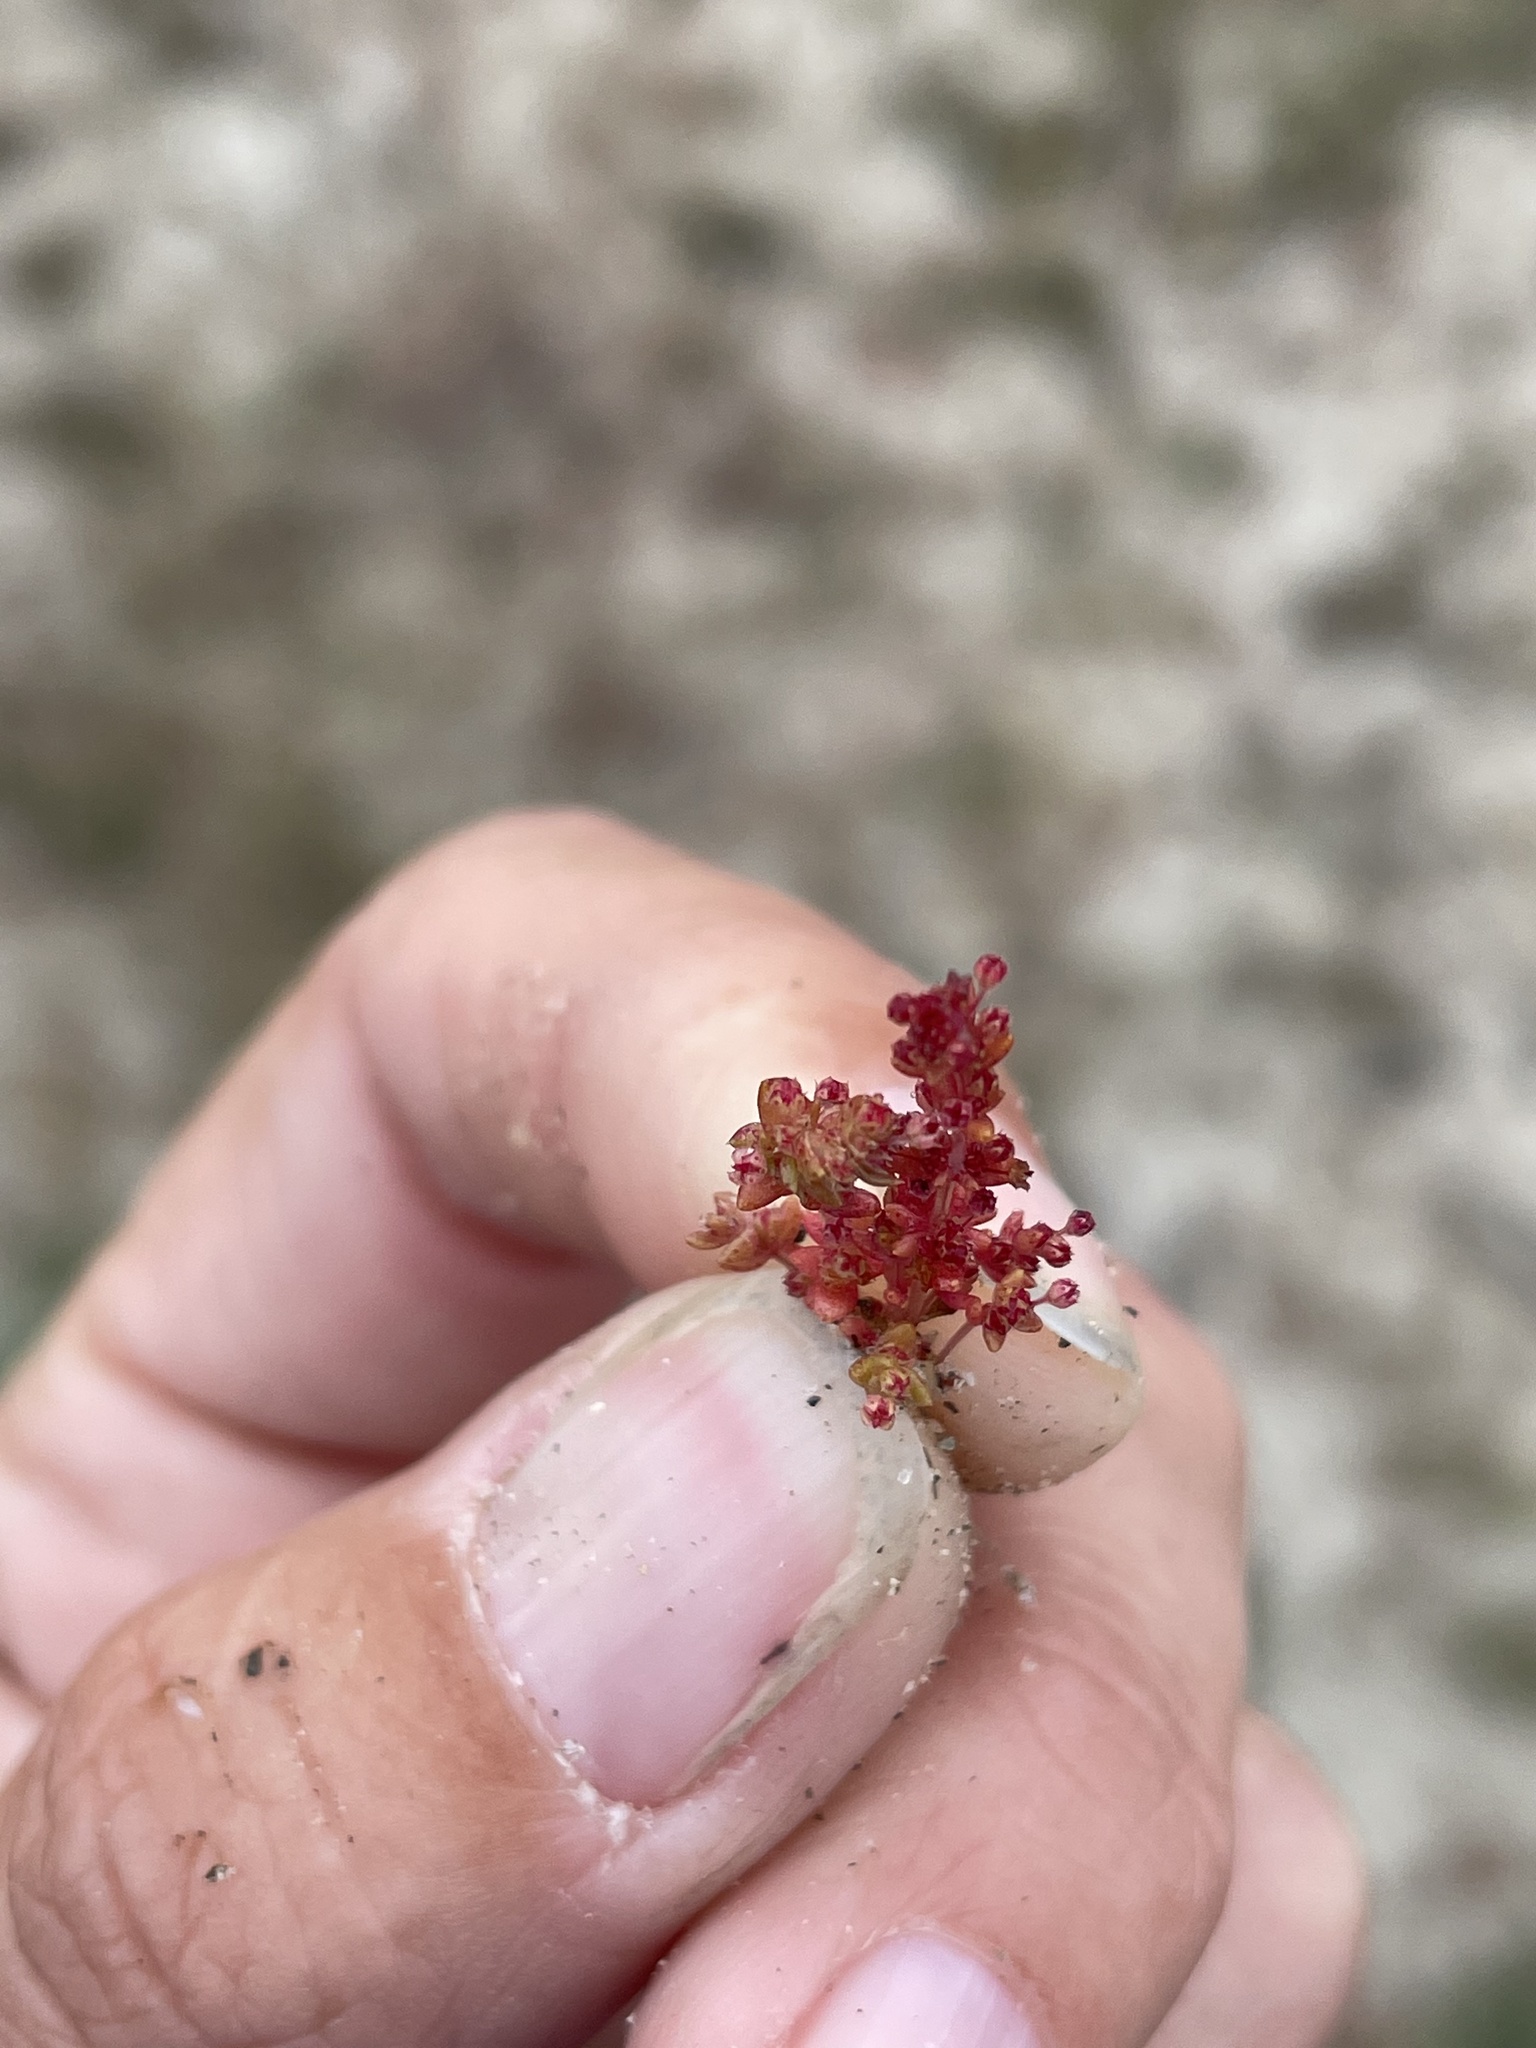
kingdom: Plantae
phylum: Tracheophyta
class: Magnoliopsida
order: Saxifragales
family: Crassulaceae
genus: Crassula
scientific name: Crassula connata
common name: Erect pygmyweed
